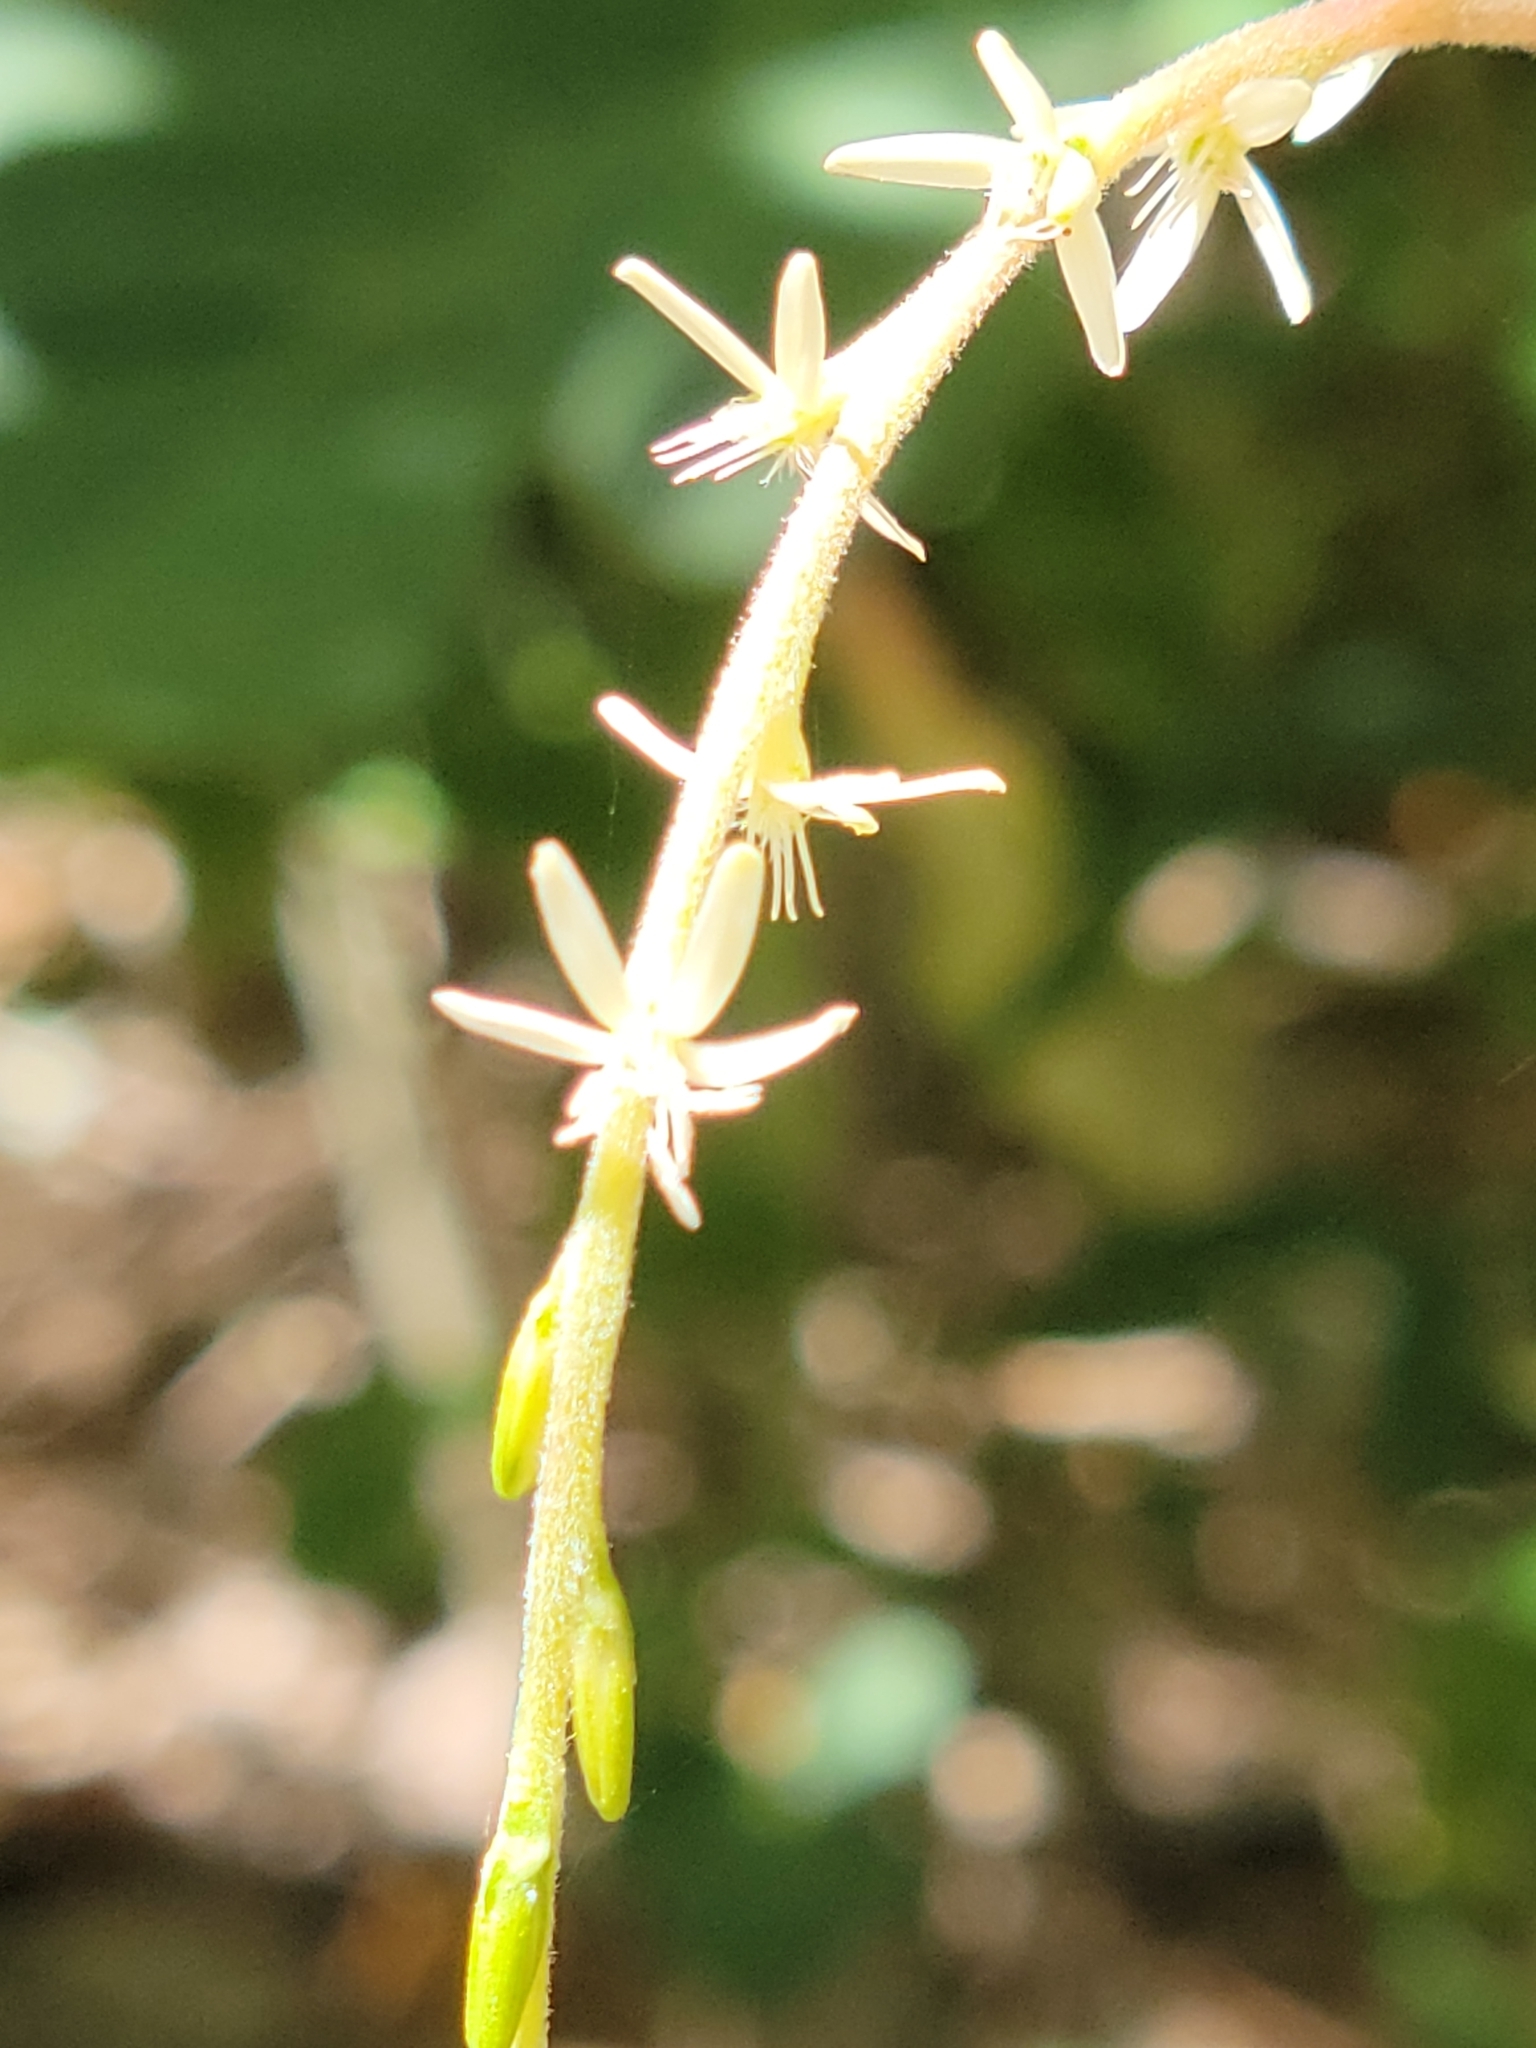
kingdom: Plantae
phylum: Tracheophyta
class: Magnoliopsida
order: Caryophyllales
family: Phytolaccaceae
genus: Petiveria
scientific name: Petiveria alliacea
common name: Garlicweed
